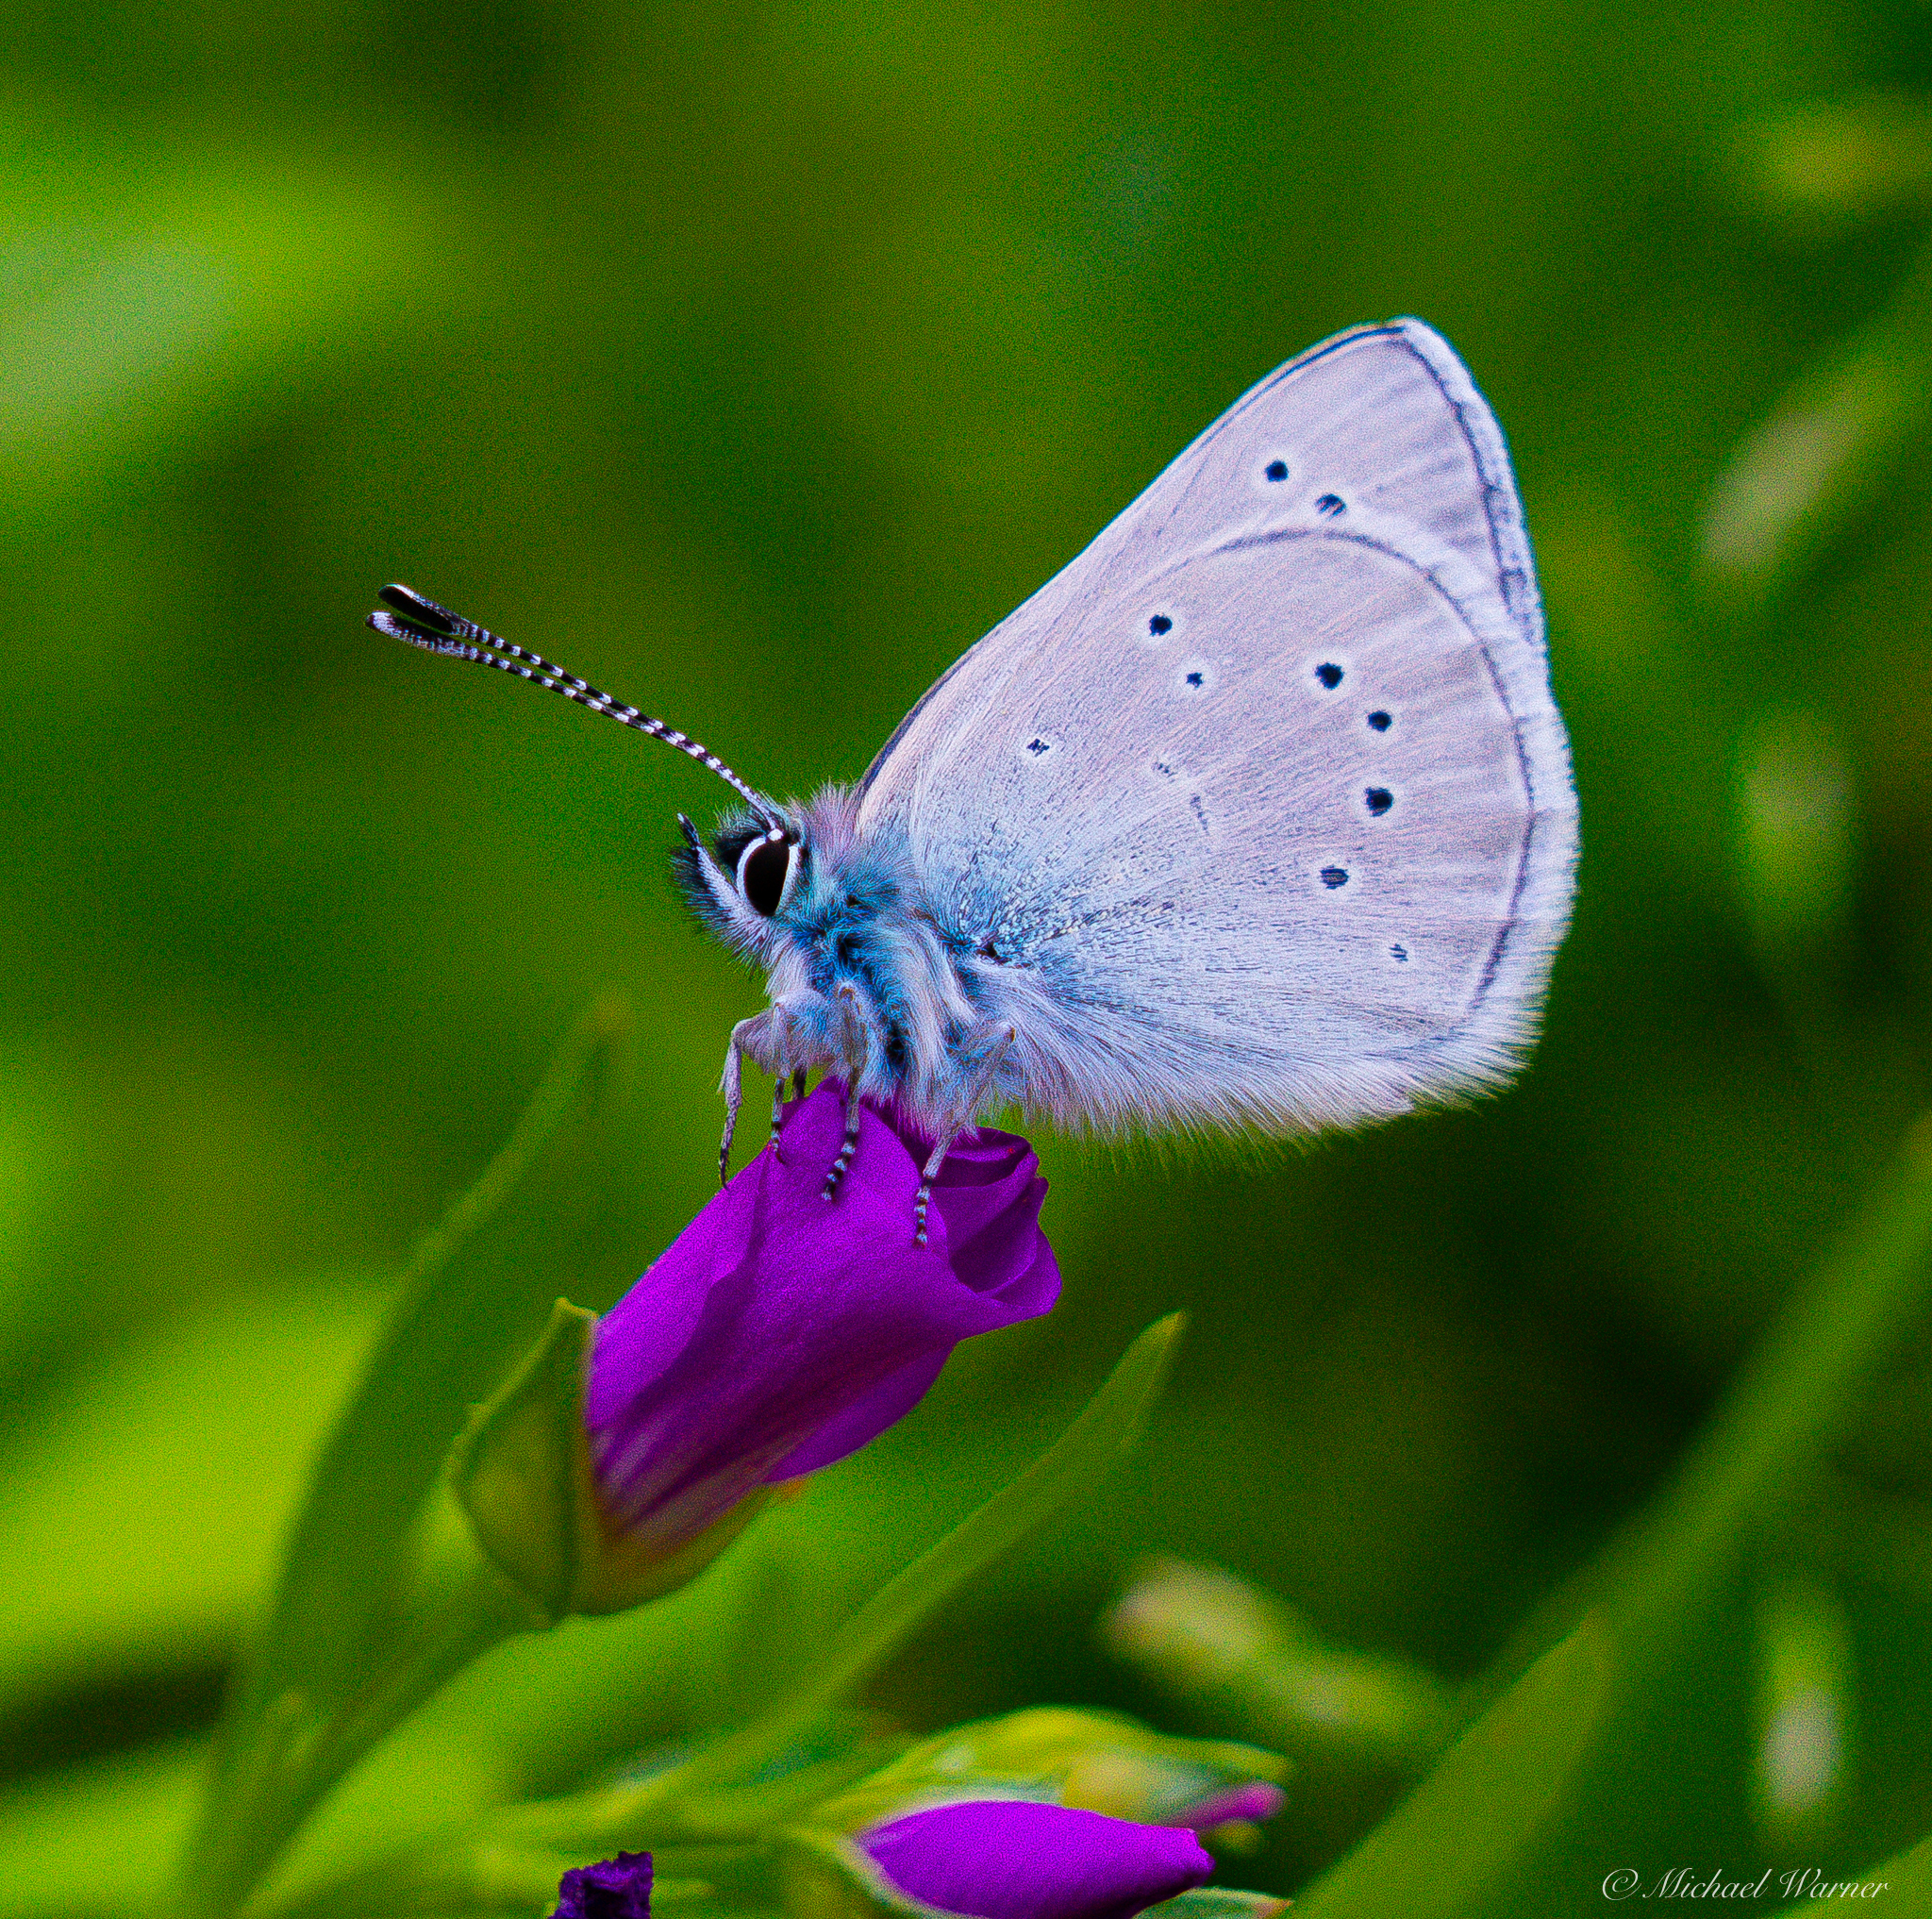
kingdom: Animalia
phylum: Arthropoda
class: Insecta
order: Lepidoptera
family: Lycaenidae
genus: Glaucopsyche
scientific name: Glaucopsyche lygdamus
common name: Silvery blue
